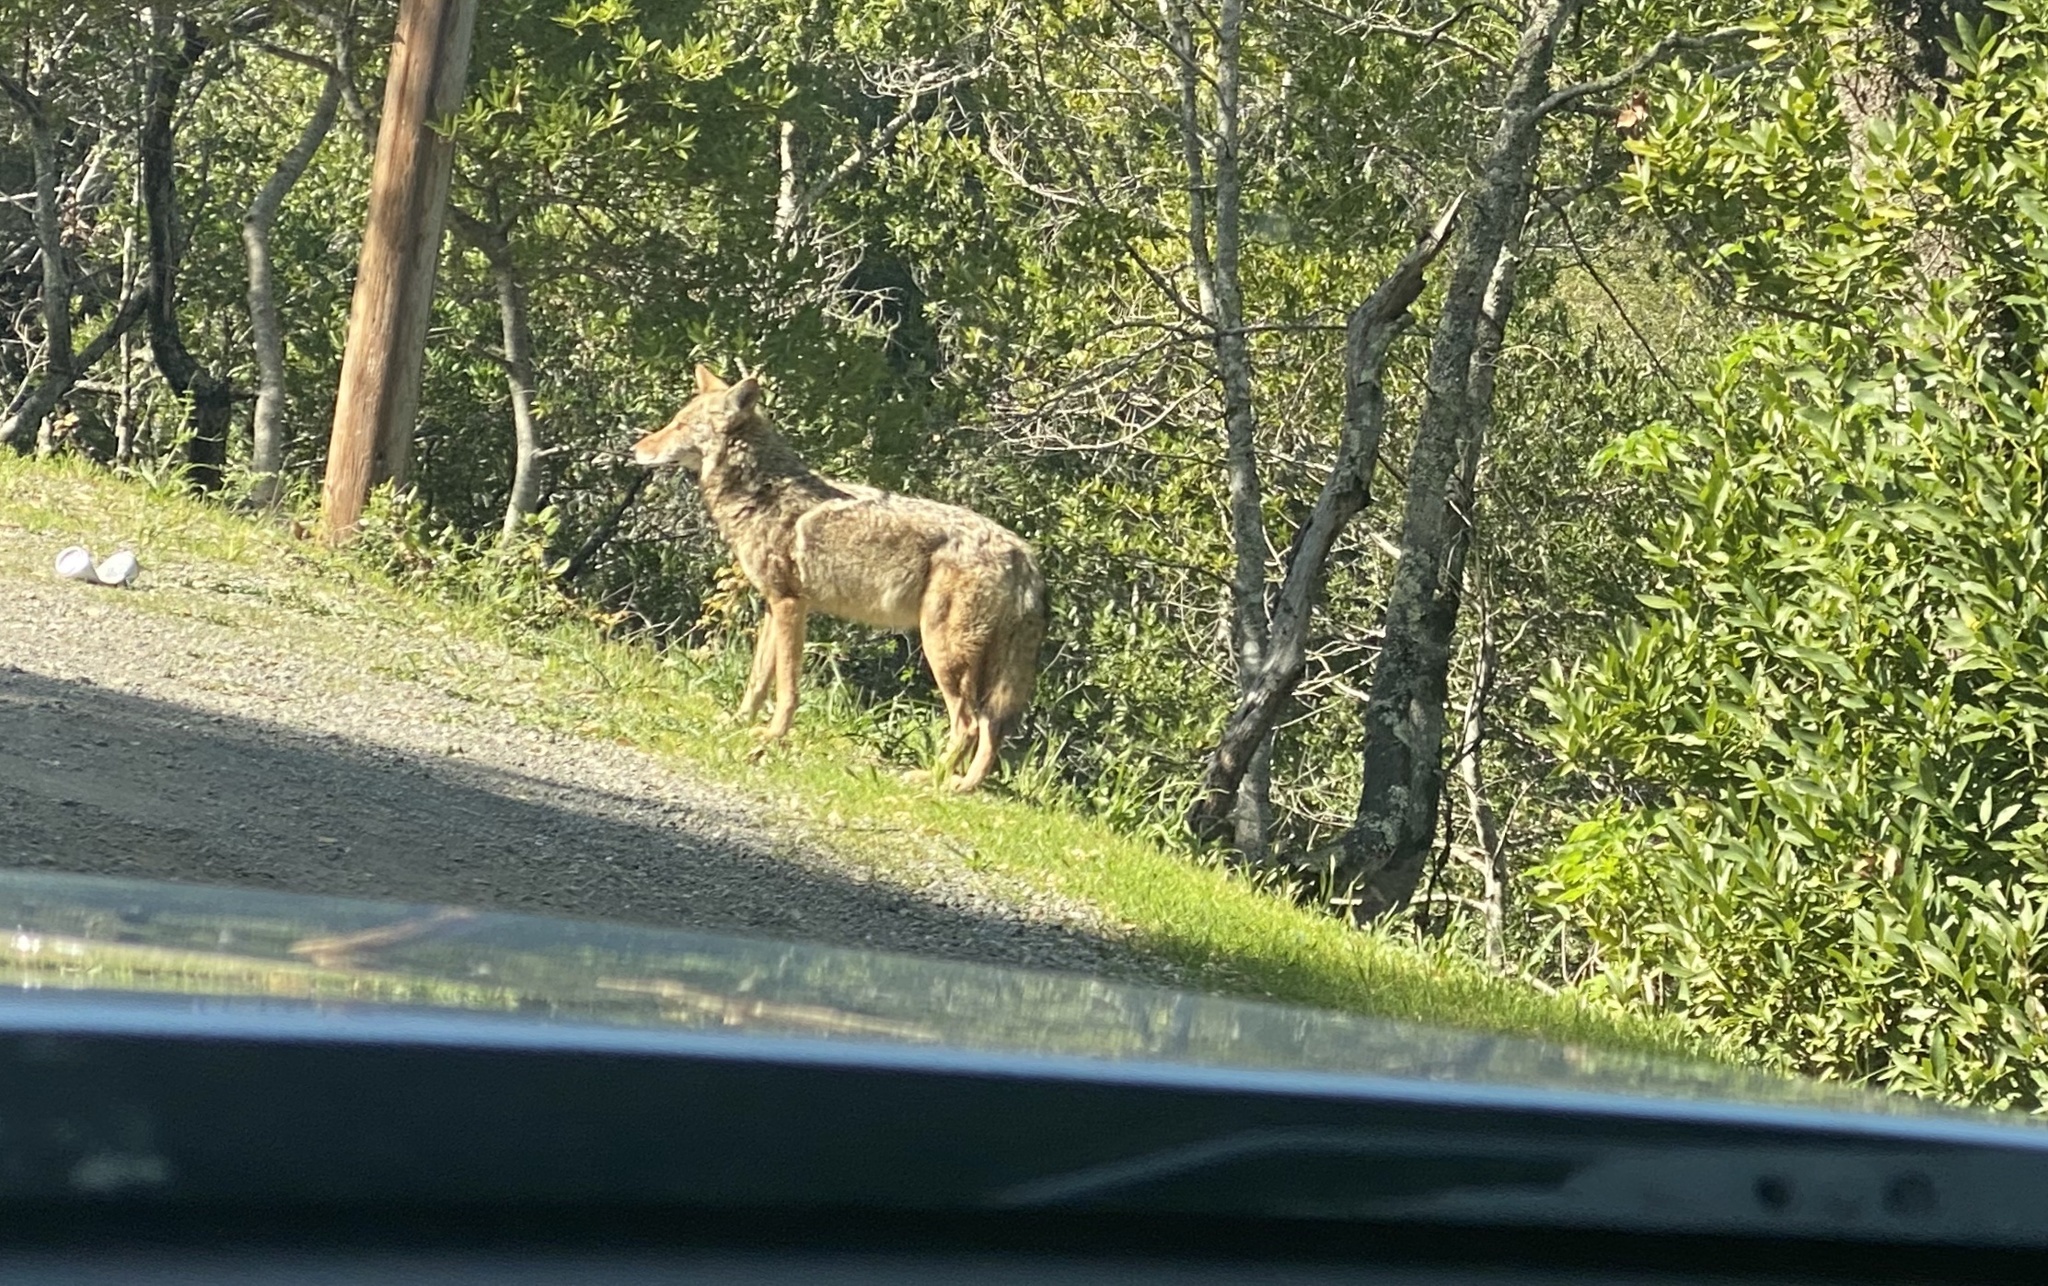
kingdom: Animalia
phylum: Chordata
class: Mammalia
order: Carnivora
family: Canidae
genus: Canis
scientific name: Canis latrans
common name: Coyote
